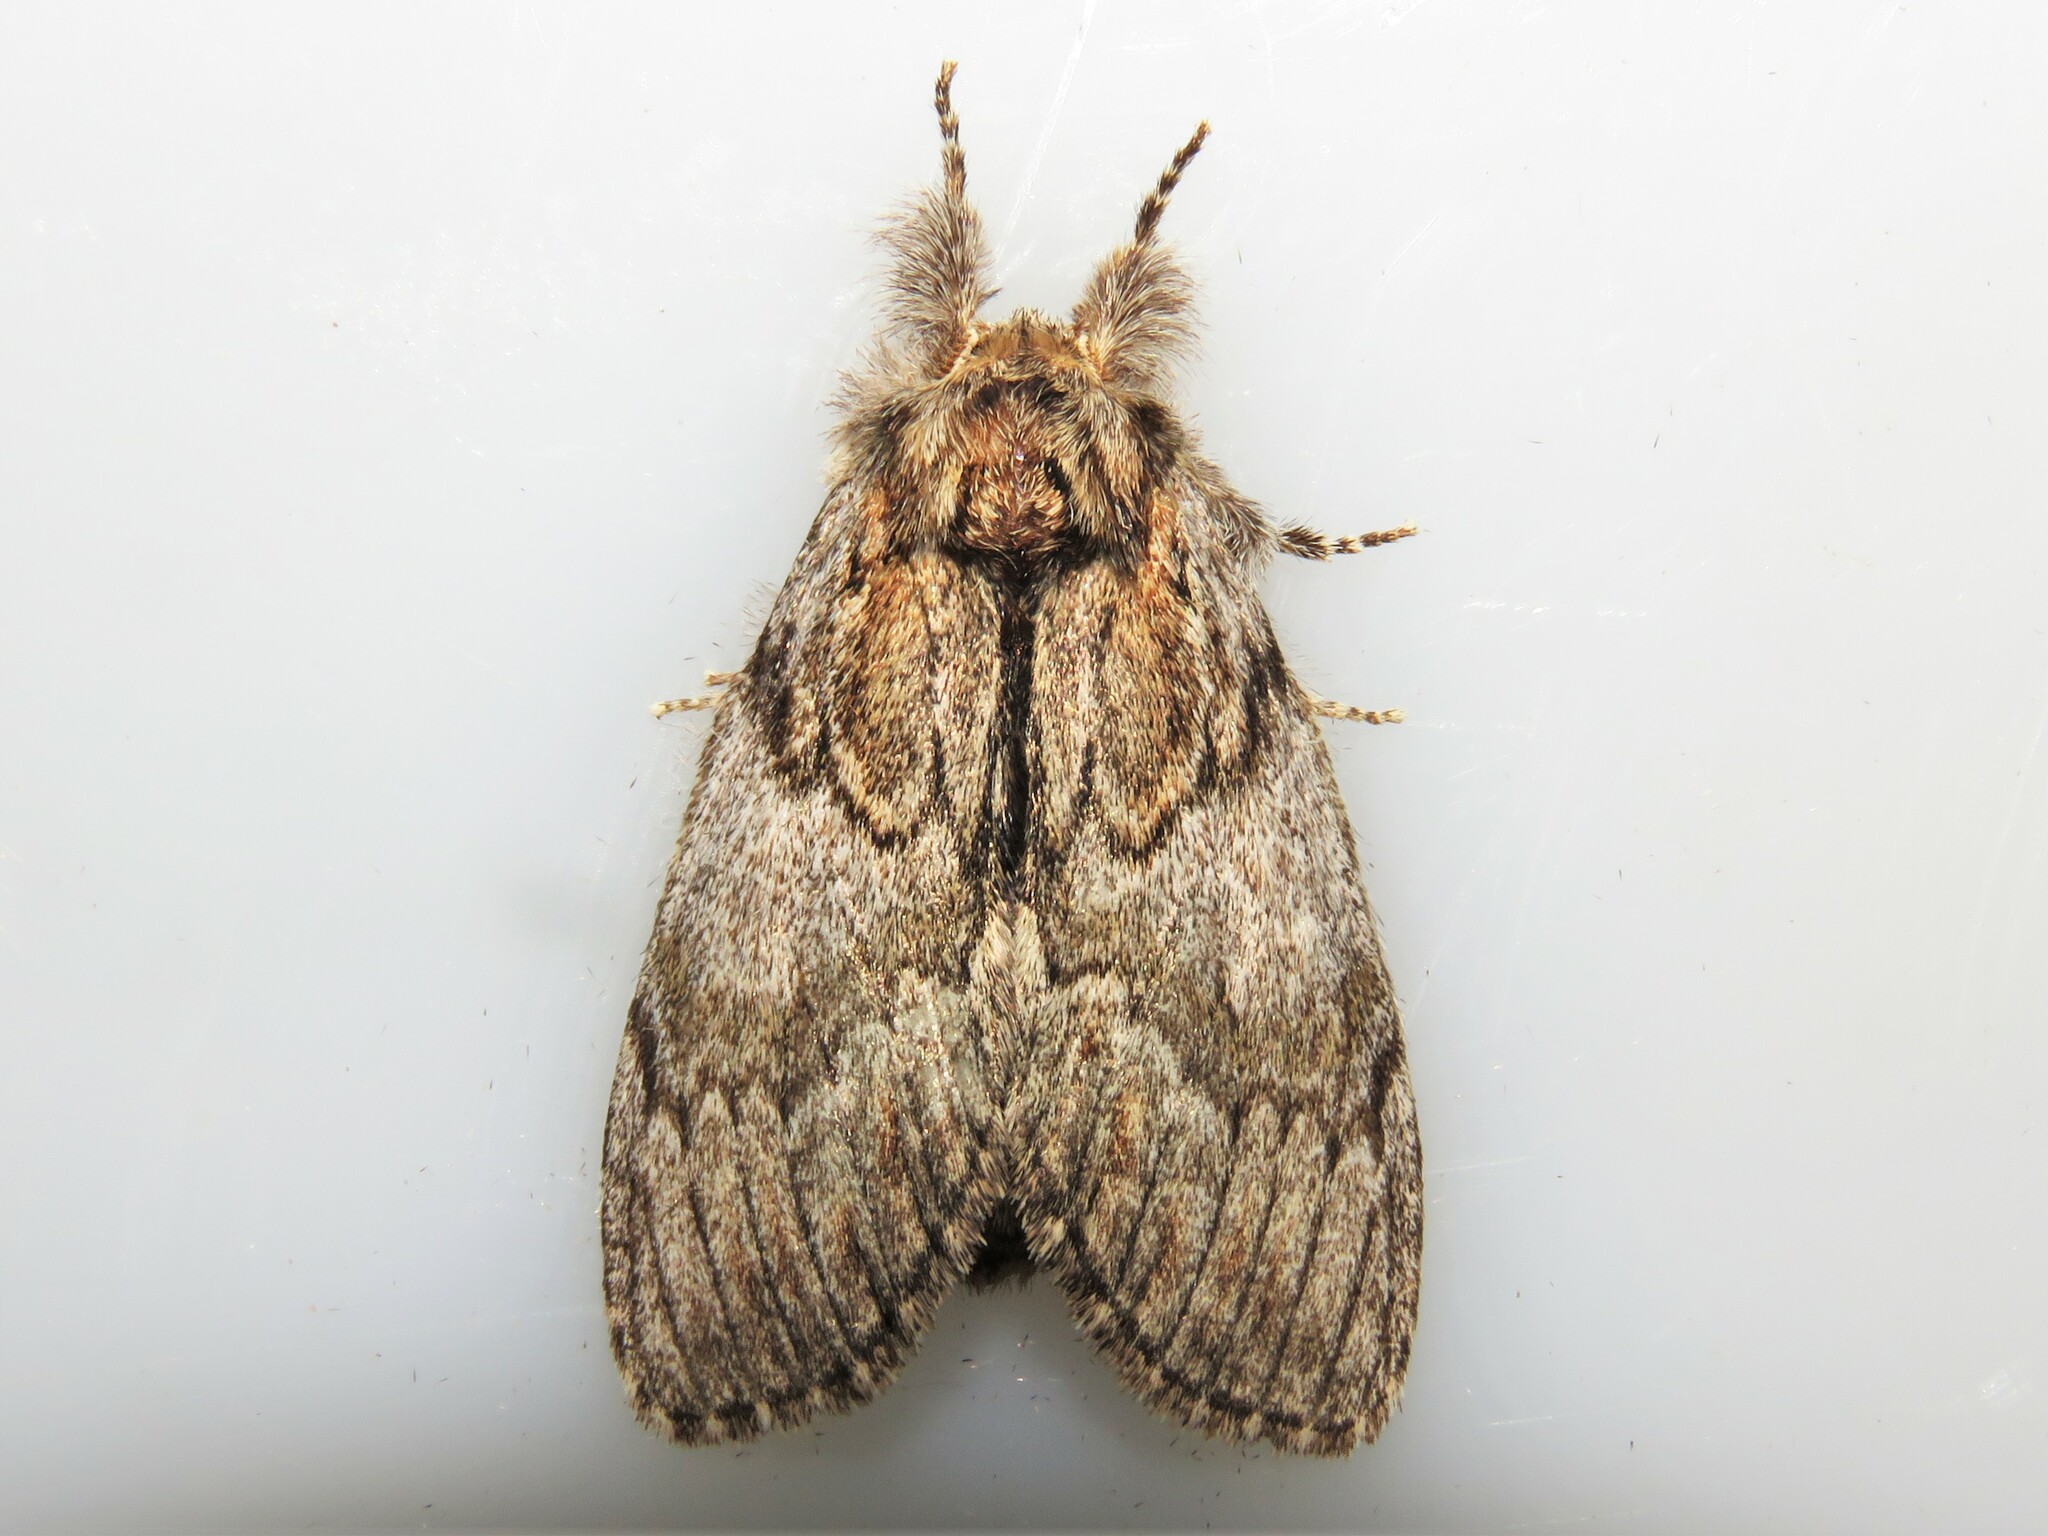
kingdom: Animalia
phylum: Arthropoda
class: Insecta
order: Lepidoptera
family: Notodontidae
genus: Peridea
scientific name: Peridea basitriens
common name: Oval-based prominent
